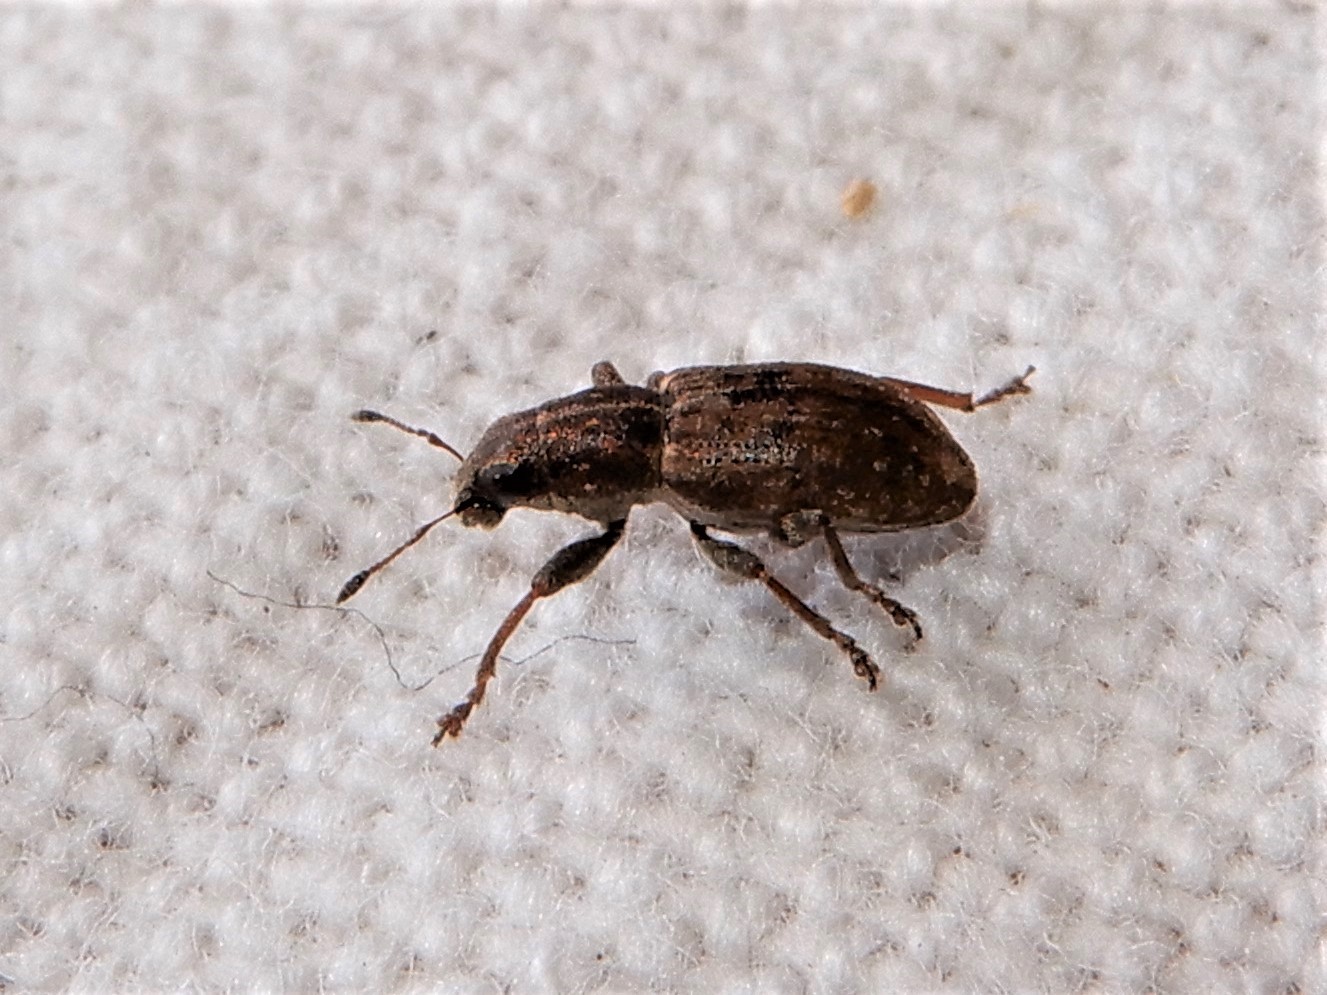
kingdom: Animalia
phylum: Arthropoda
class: Insecta
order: Coleoptera
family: Curculionidae
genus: Sitona
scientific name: Sitona obsoletus
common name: Weevil
